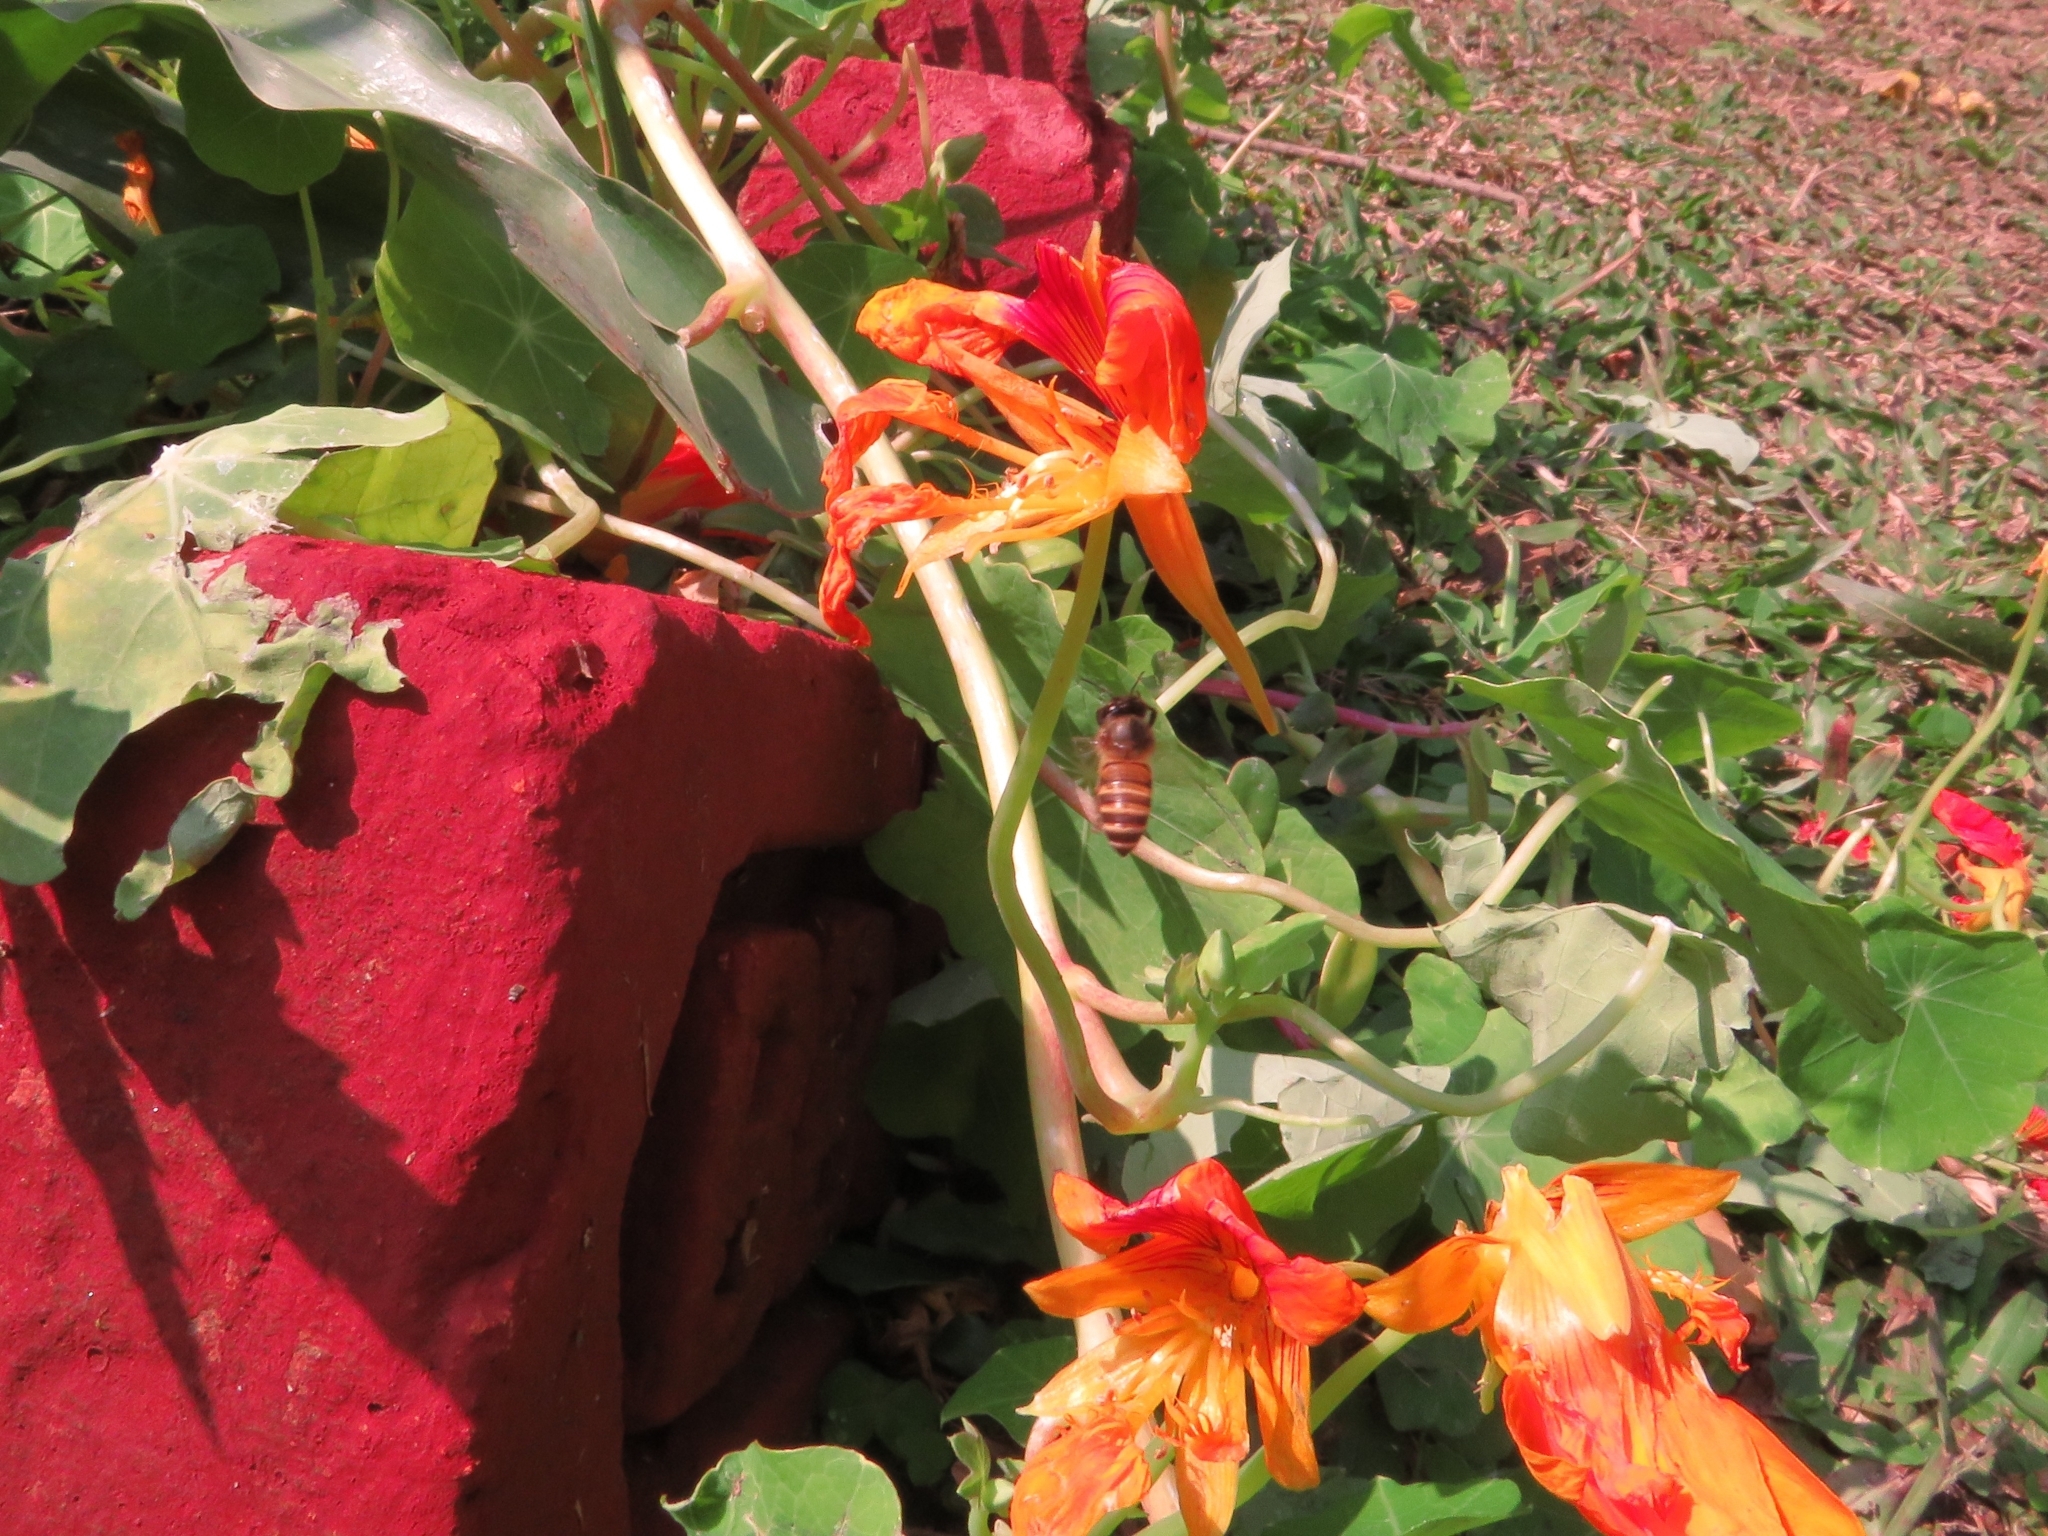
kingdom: Animalia
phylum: Arthropoda
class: Insecta
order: Hymenoptera
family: Apidae
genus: Apis
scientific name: Apis cerana
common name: Honey bee
